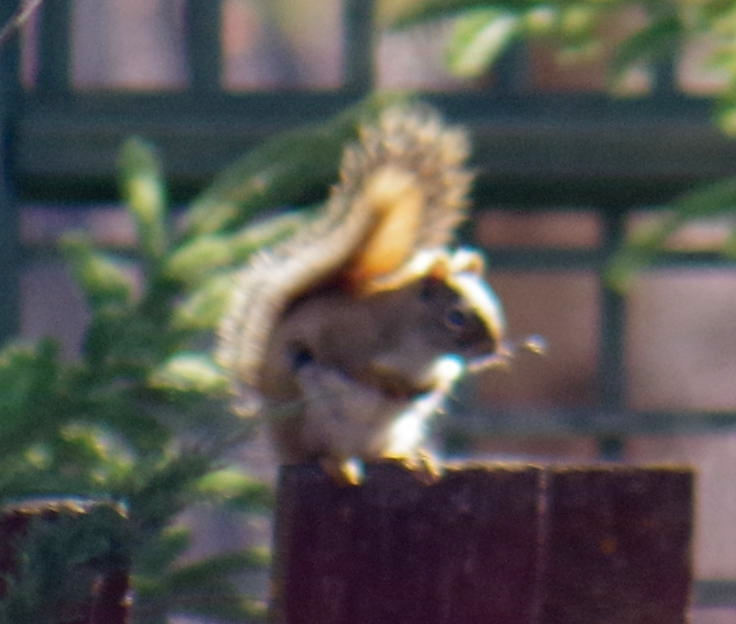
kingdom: Animalia
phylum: Chordata
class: Mammalia
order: Rodentia
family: Sciuridae
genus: Tamiasciurus
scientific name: Tamiasciurus hudsonicus
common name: Red squirrel
